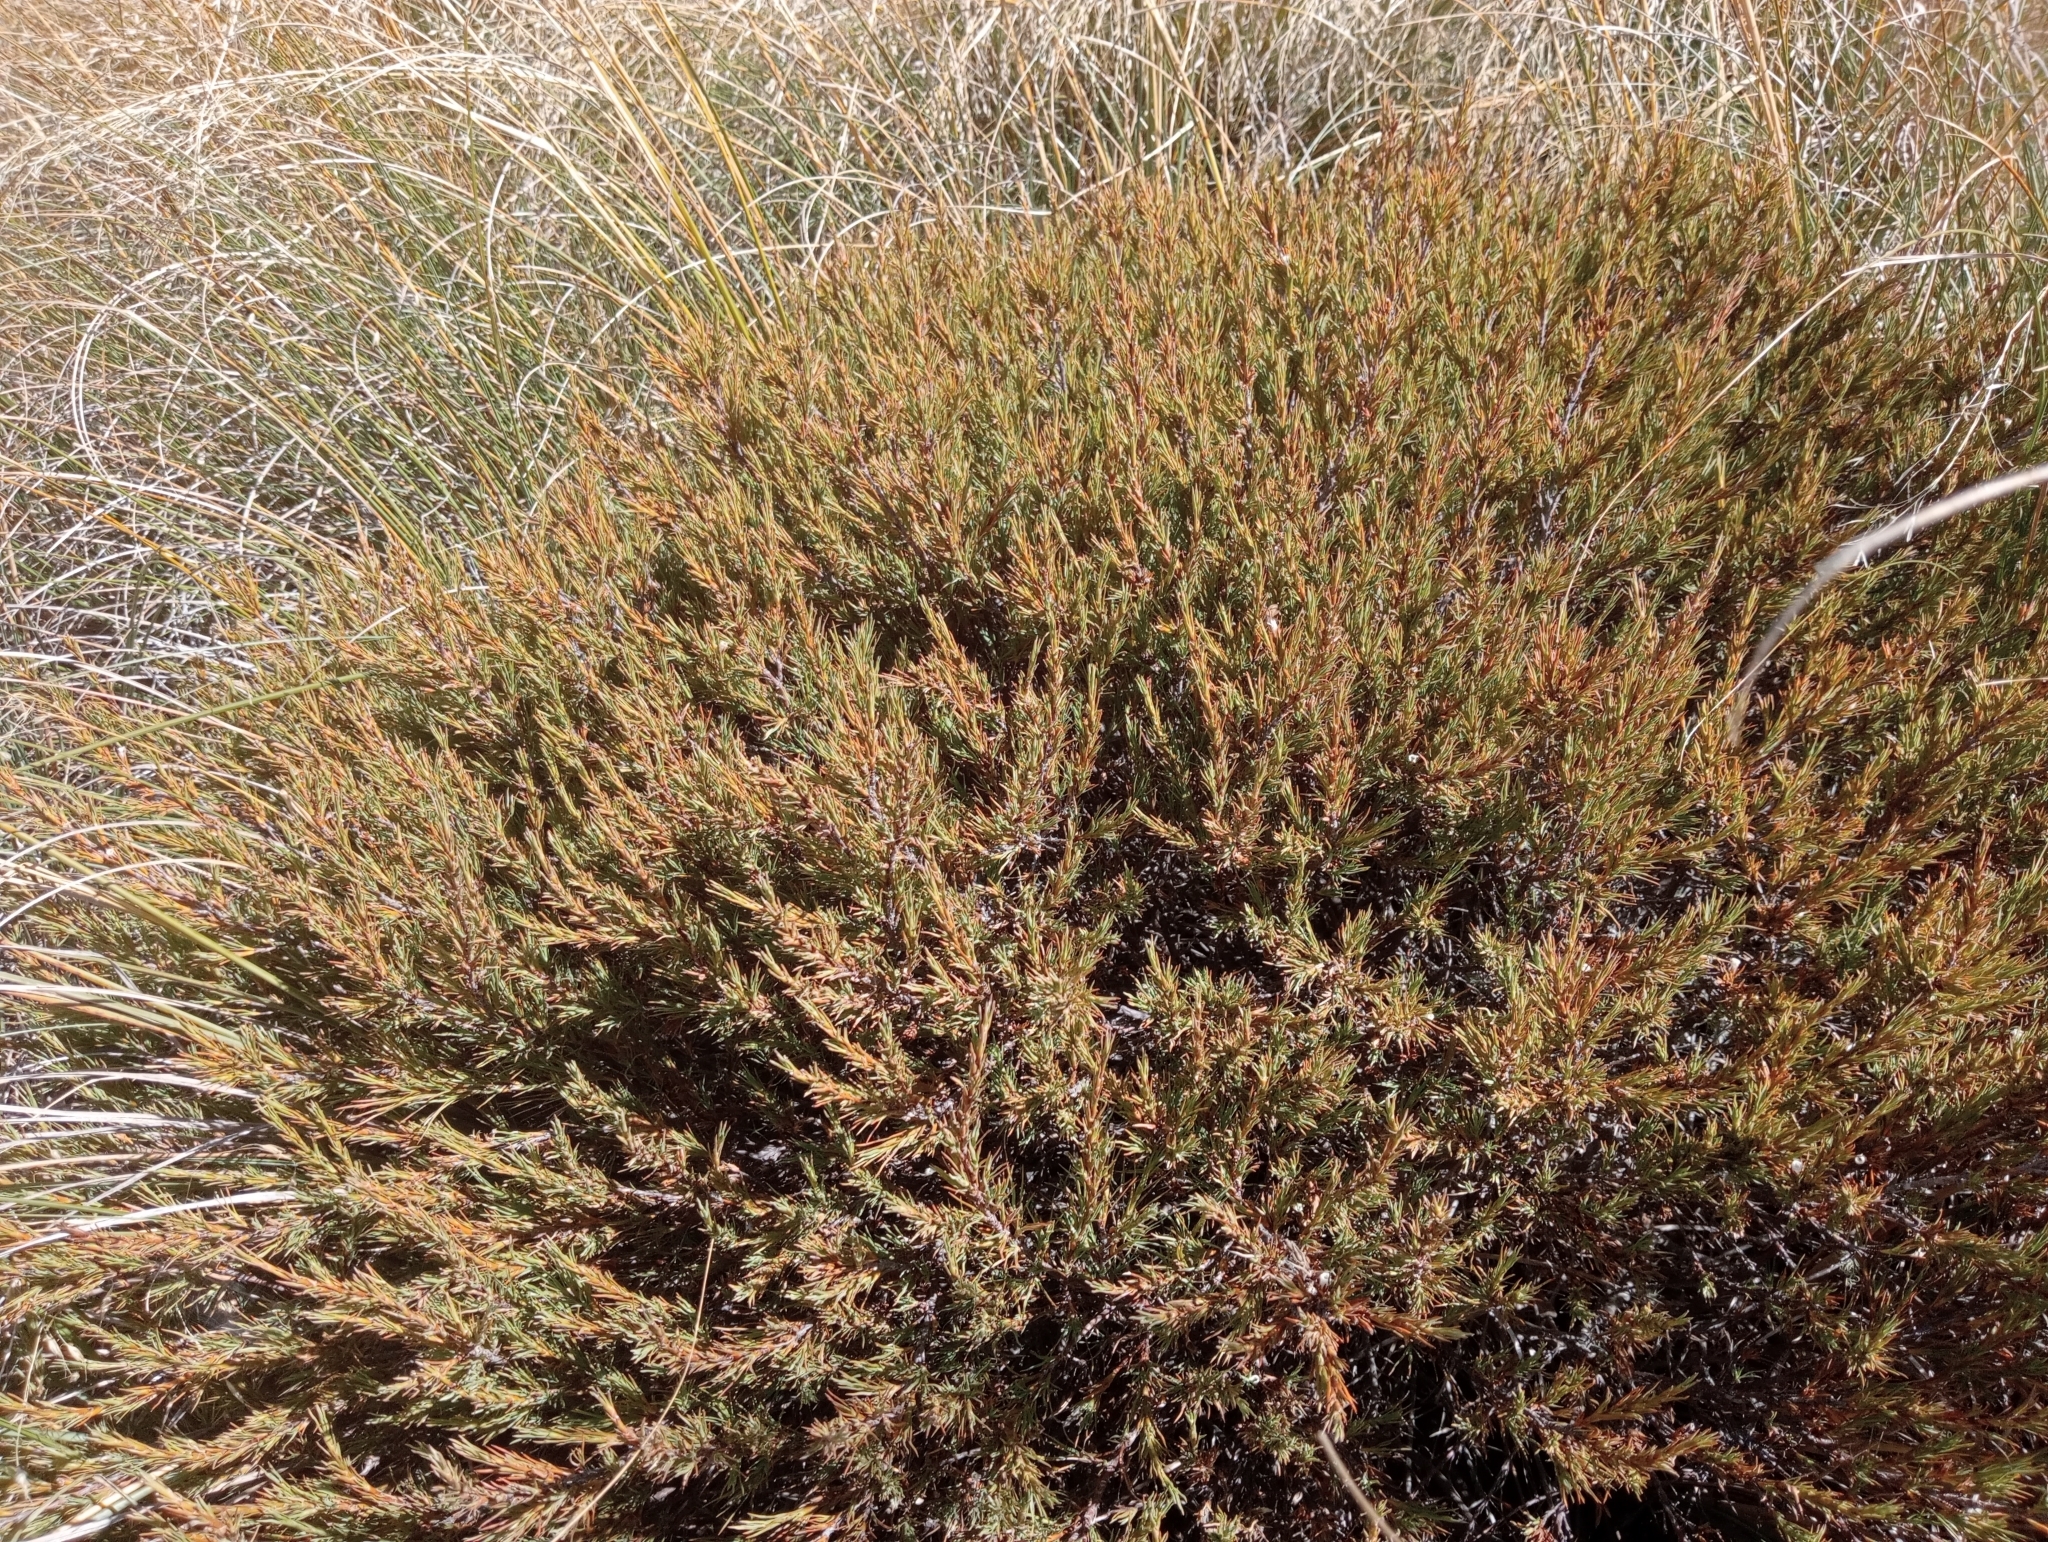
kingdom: Plantae
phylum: Tracheophyta
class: Magnoliopsida
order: Ericales
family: Ericaceae
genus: Dracophyllum
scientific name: Dracophyllum rosmarinifolium
